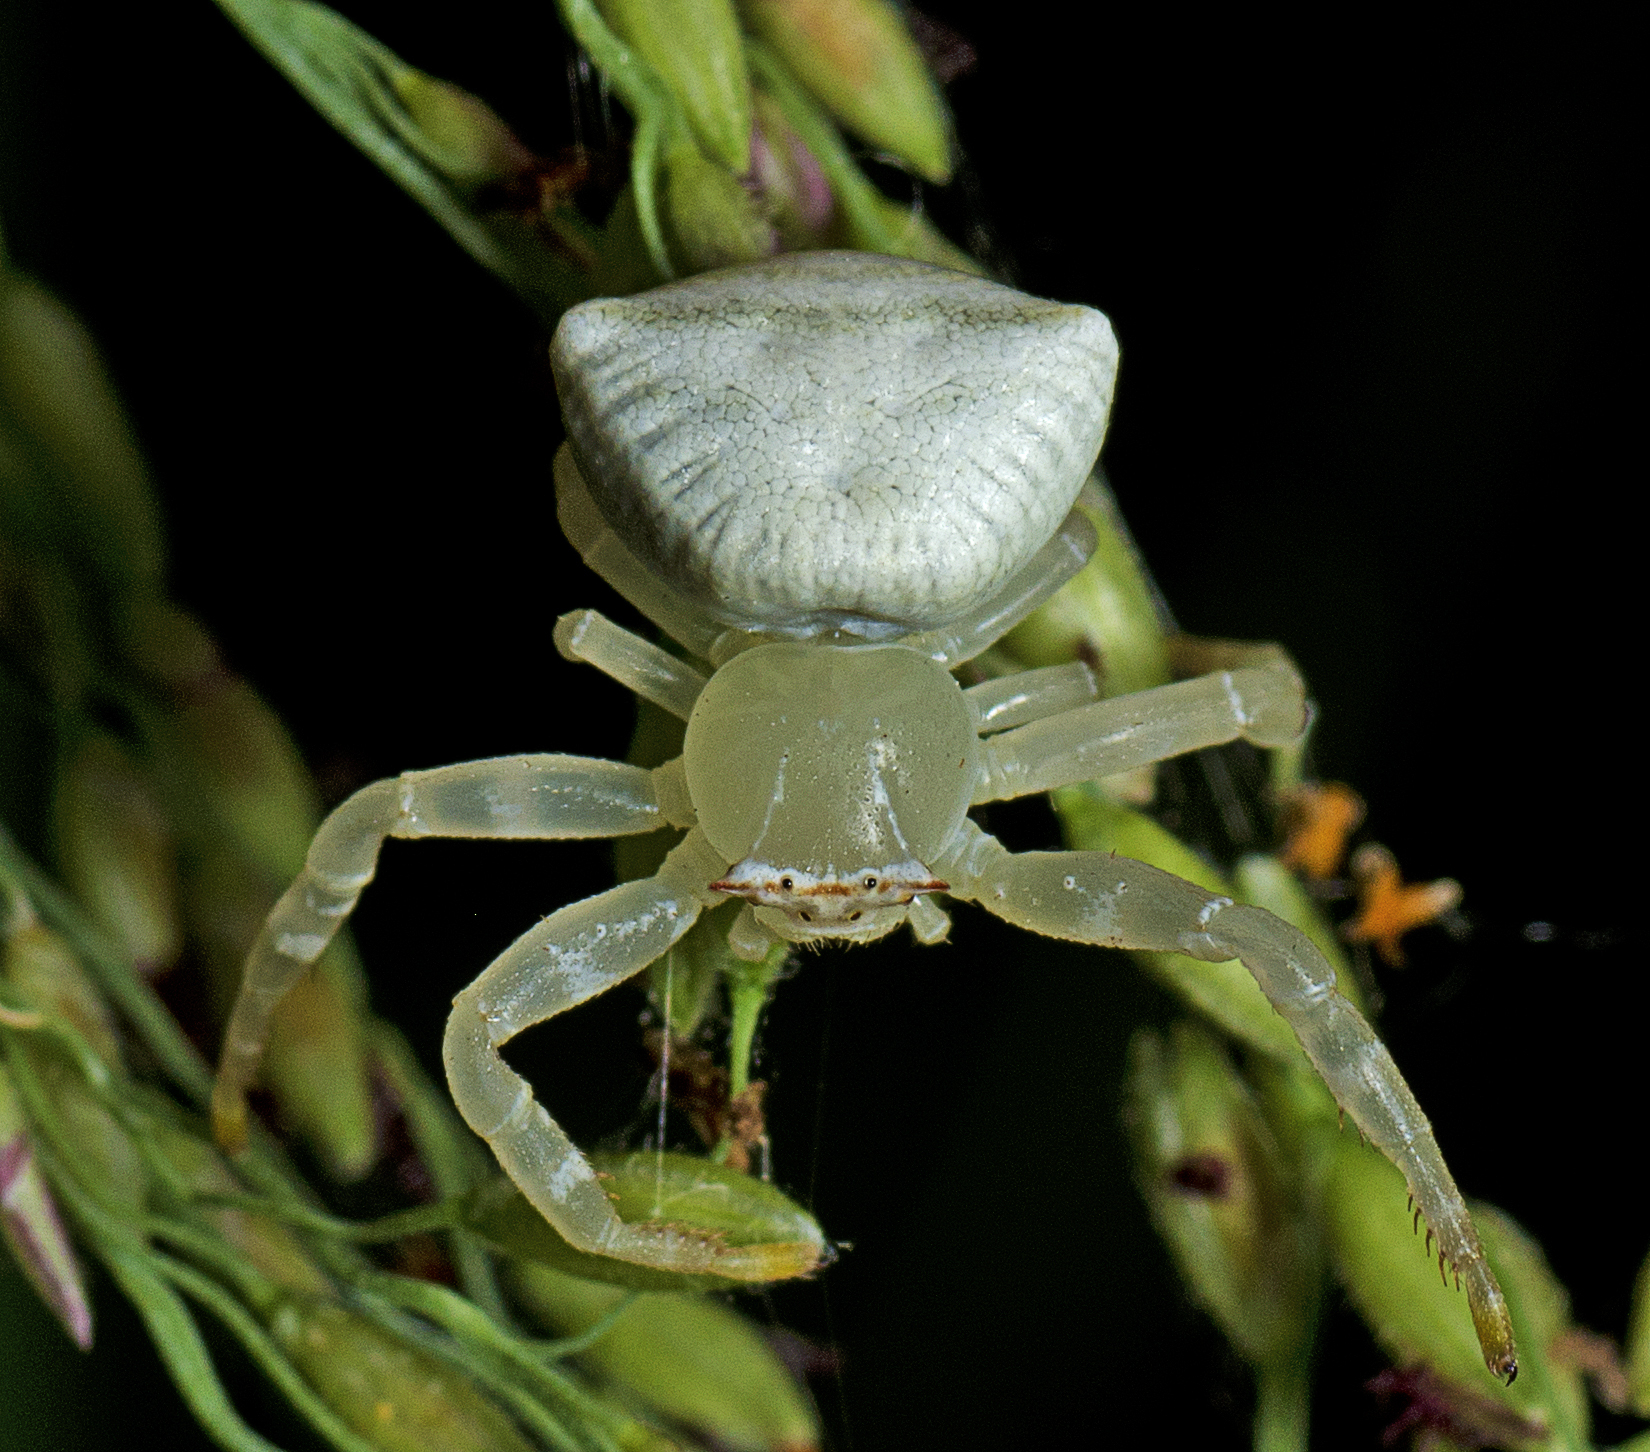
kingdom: Animalia
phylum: Arthropoda
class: Arachnida
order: Araneae
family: Thomisidae
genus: Thomisus
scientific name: Thomisus spectabilis
